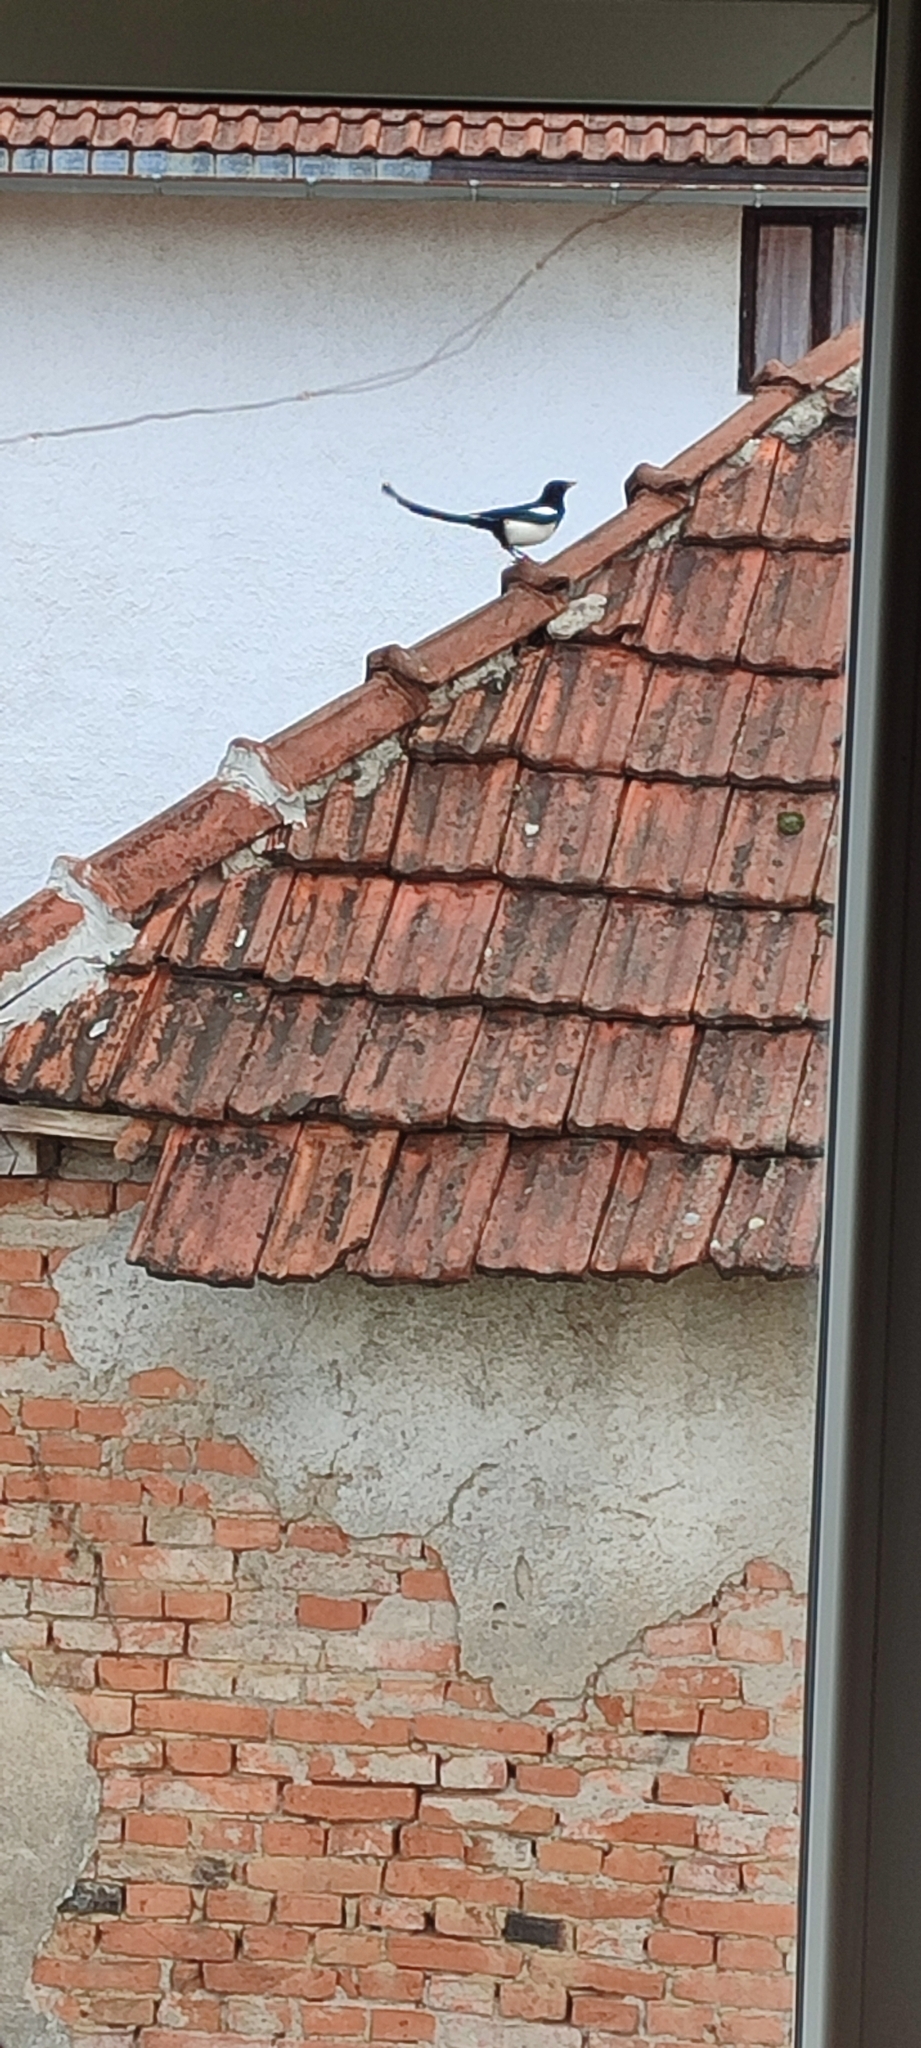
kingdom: Animalia
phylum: Chordata
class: Aves
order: Passeriformes
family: Corvidae
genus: Pica
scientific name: Pica pica
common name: Eurasian magpie
